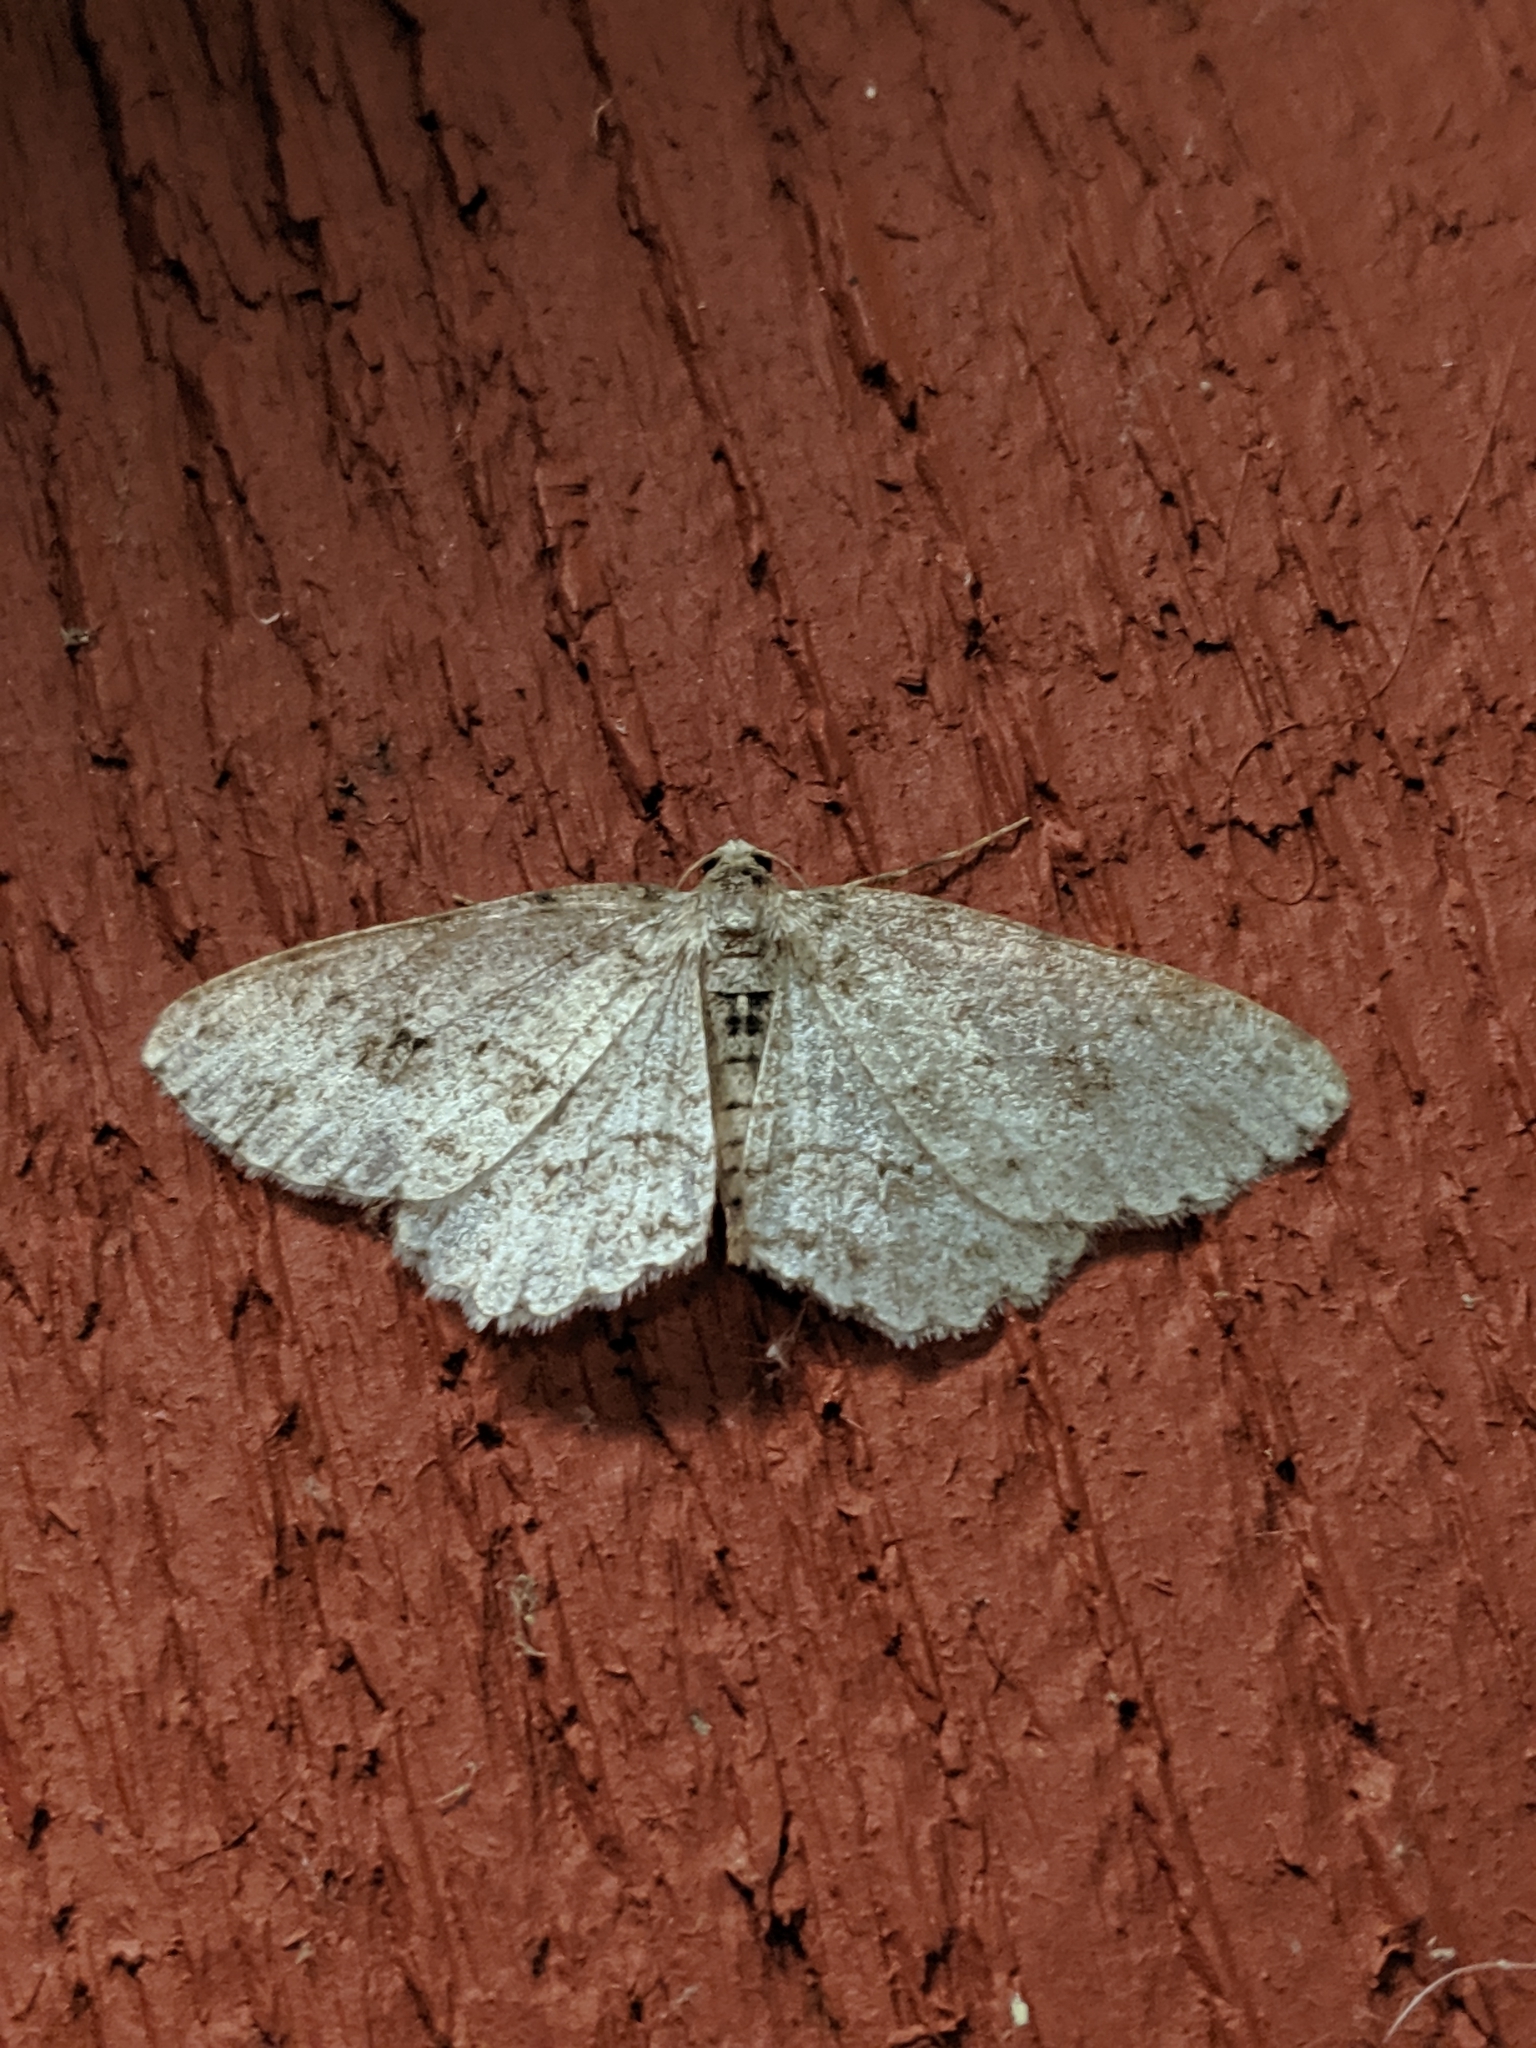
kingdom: Animalia
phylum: Arthropoda
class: Insecta
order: Lepidoptera
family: Geometridae
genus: Ectropis
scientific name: Ectropis crepuscularia
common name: Engrailed
